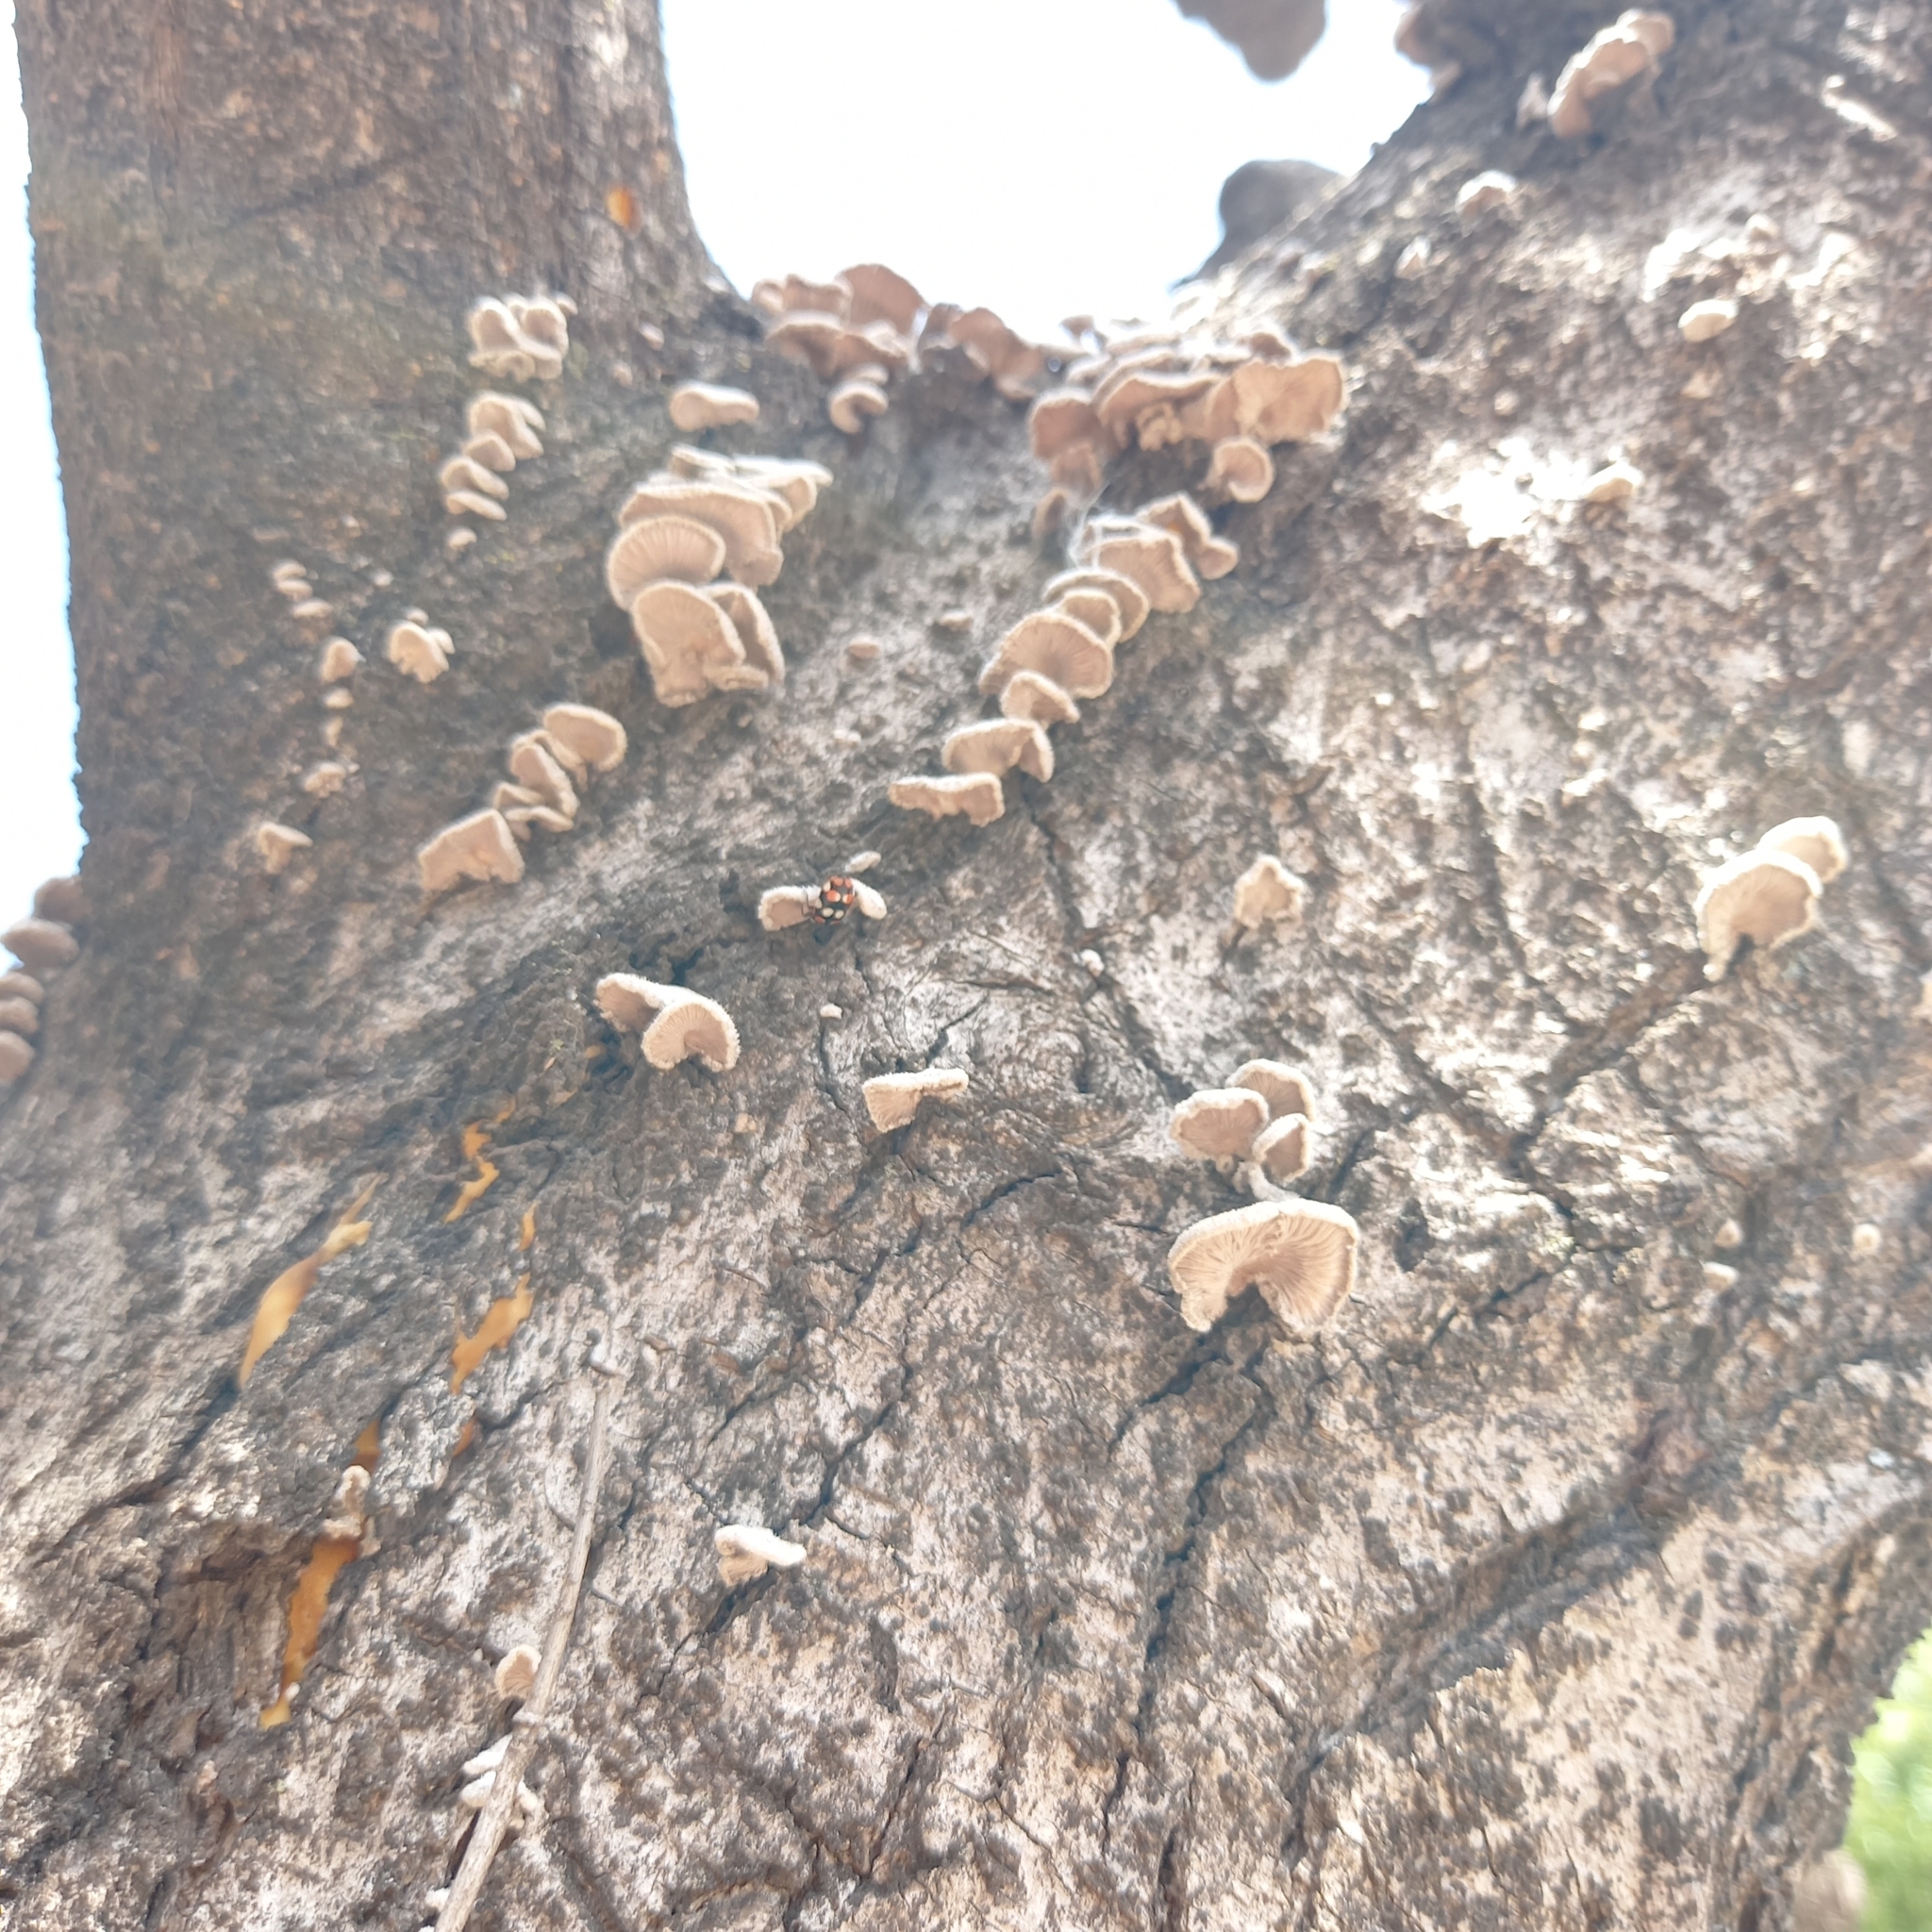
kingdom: Fungi
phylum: Basidiomycota
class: Agaricomycetes
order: Agaricales
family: Schizophyllaceae
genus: Schizophyllum
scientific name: Schizophyllum commune
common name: Common porecrust
